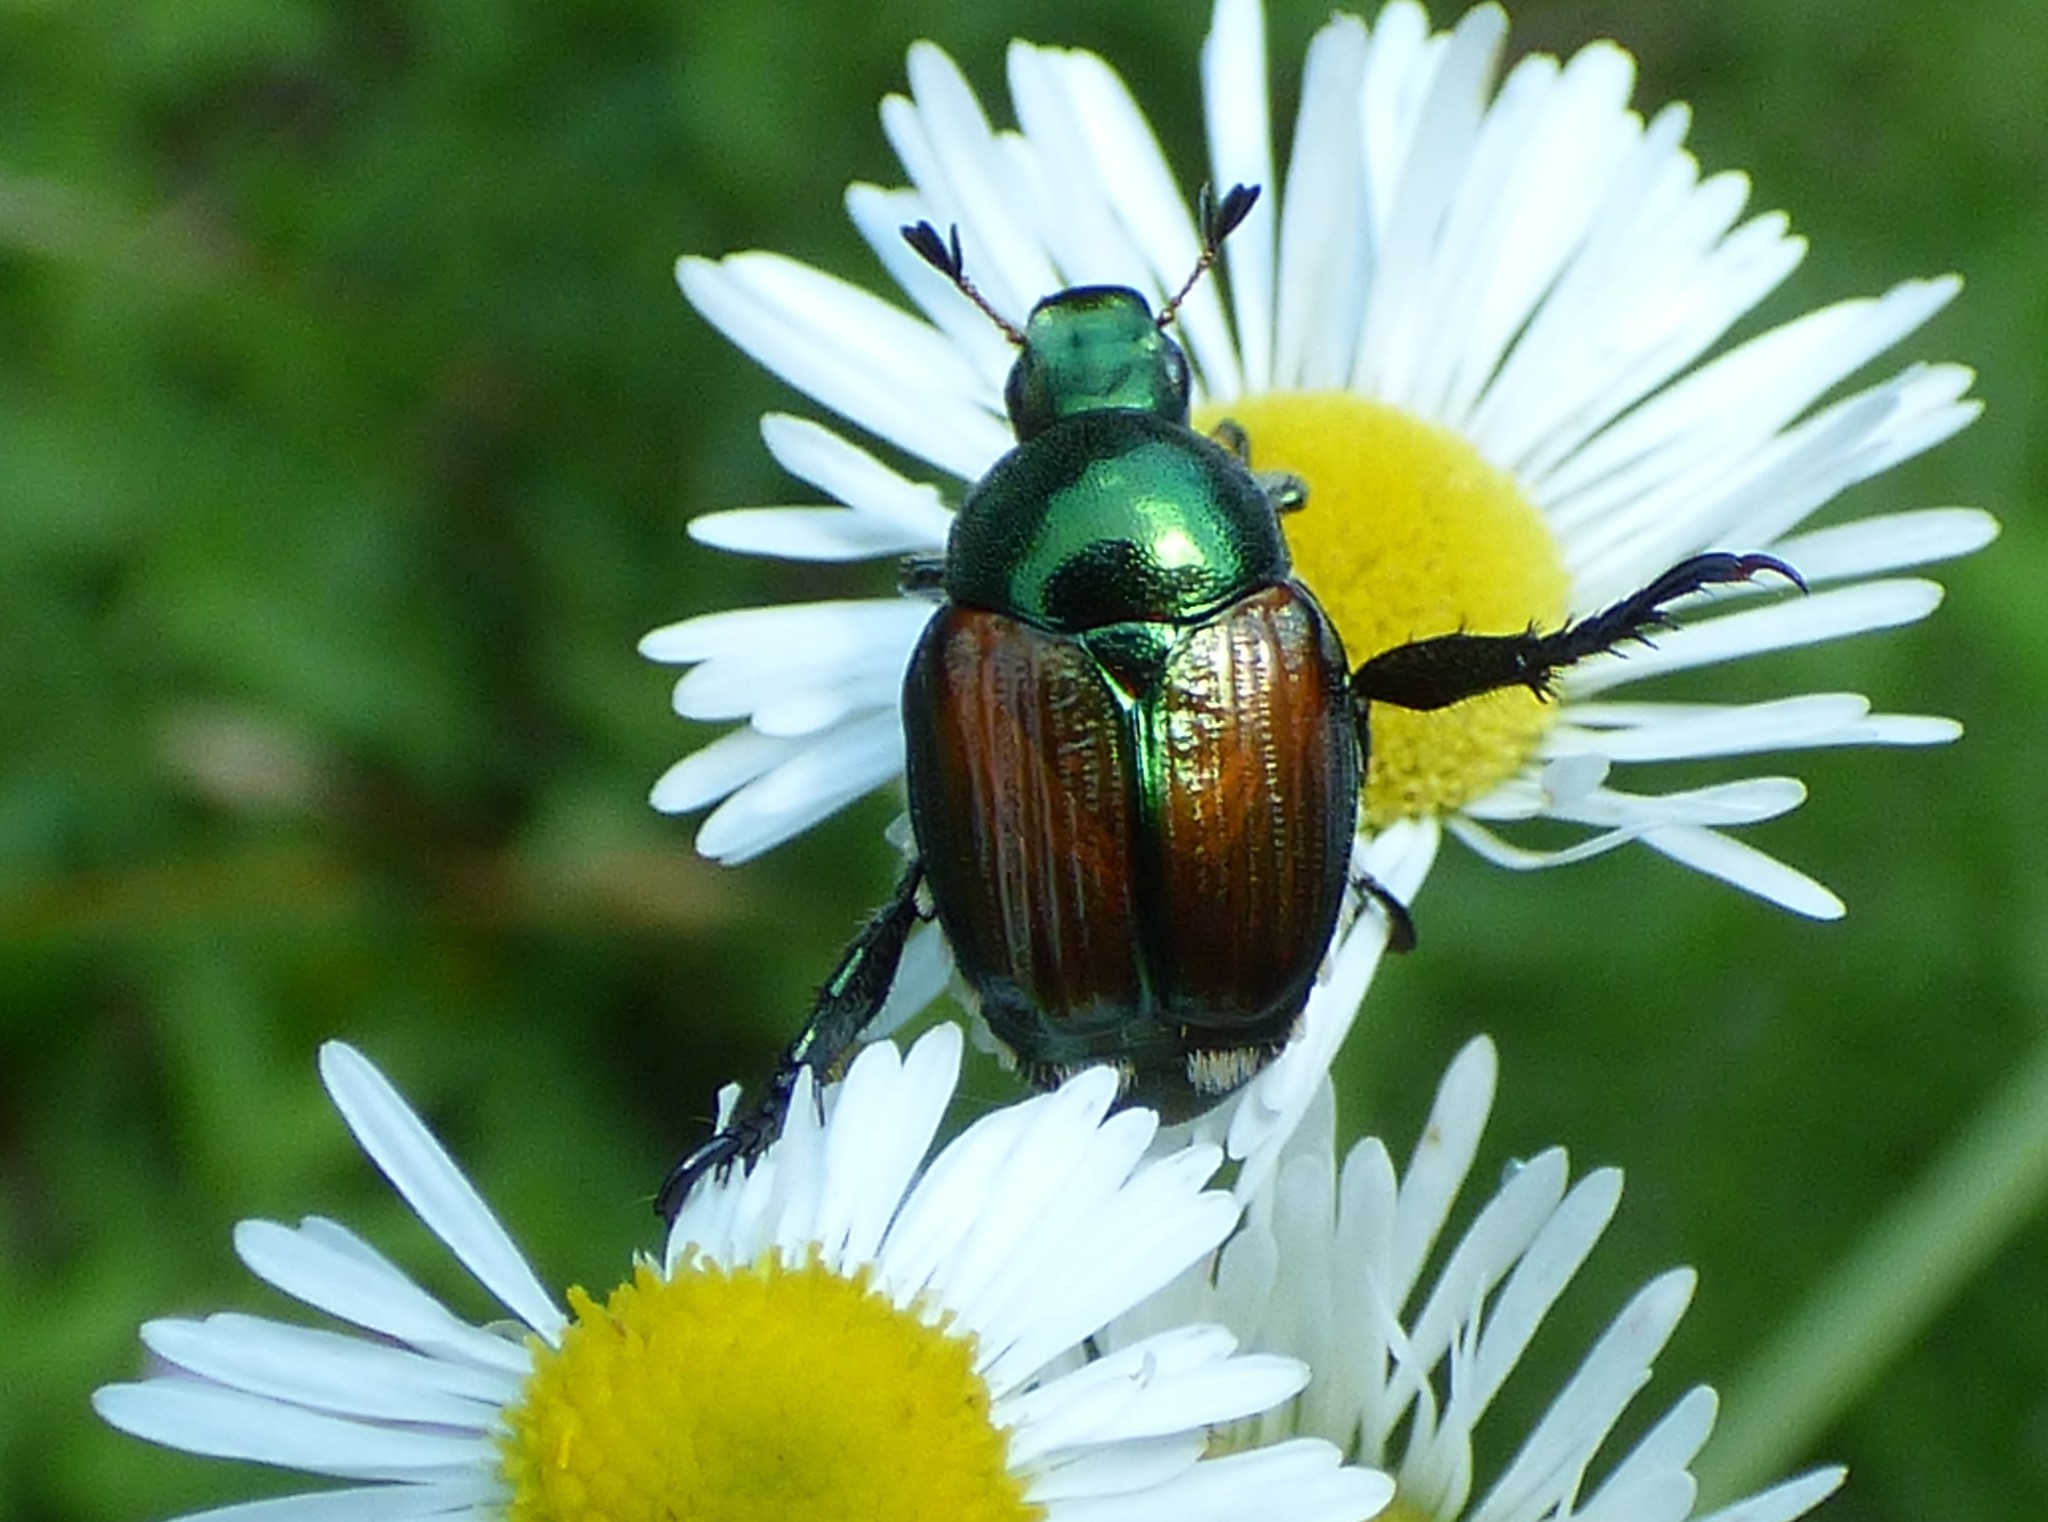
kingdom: Animalia
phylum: Arthropoda
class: Insecta
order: Coleoptera
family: Scarabaeidae
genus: Popillia
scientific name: Popillia japonica
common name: Japanese beetle
